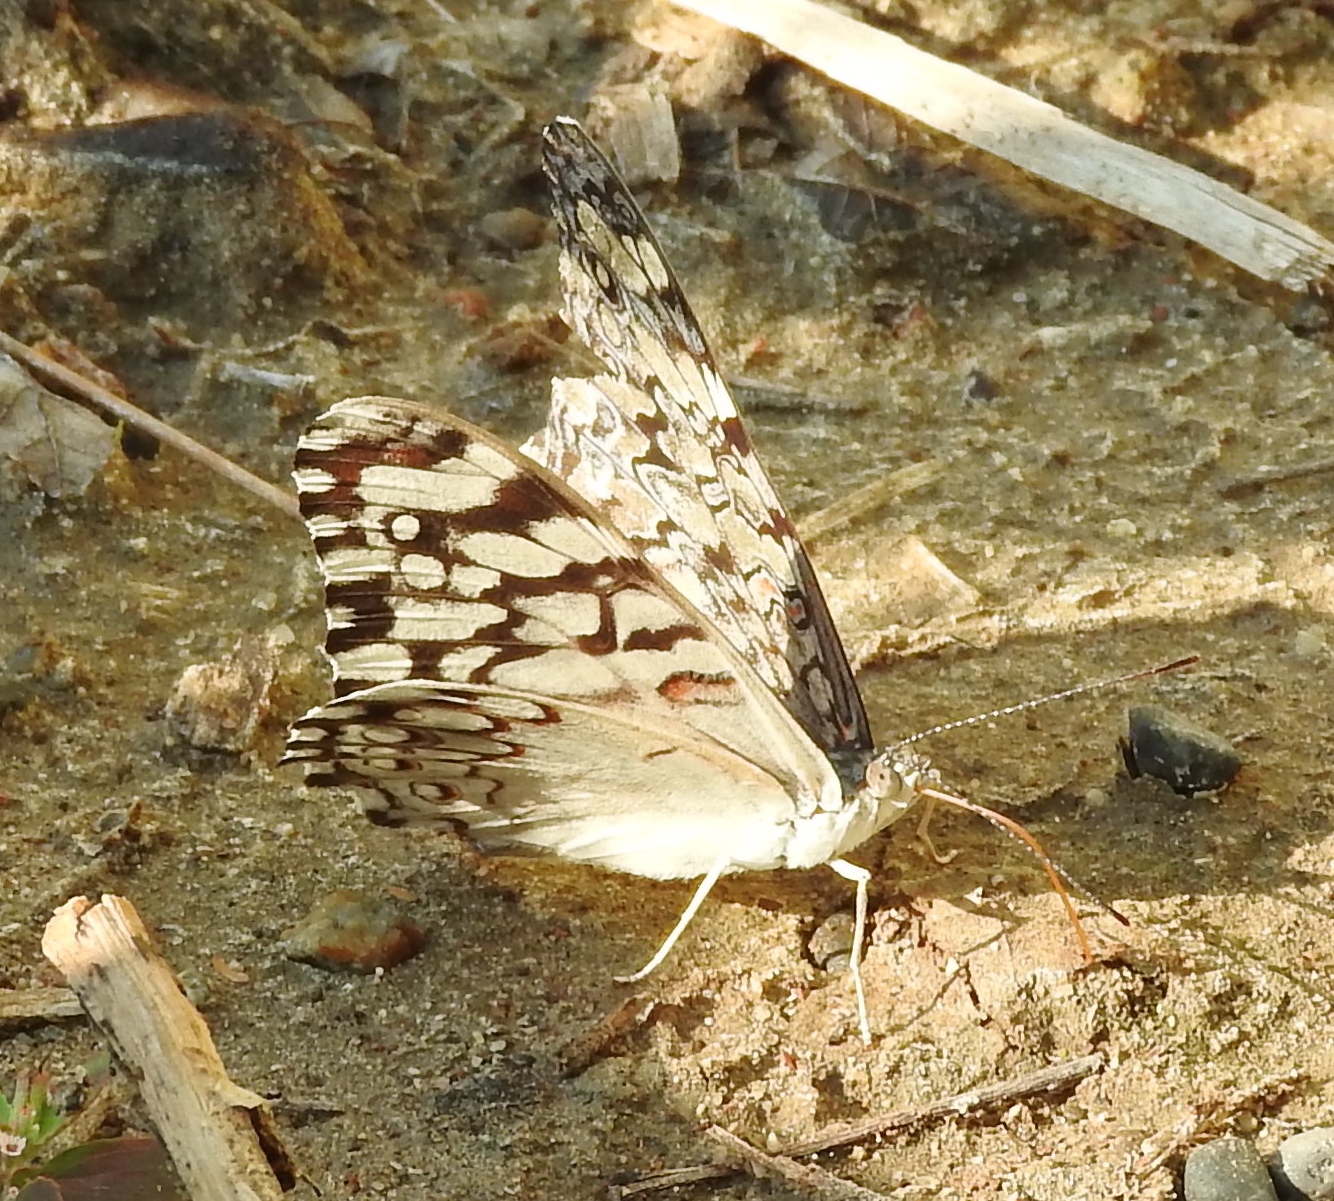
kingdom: Animalia
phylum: Arthropoda
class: Insecta
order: Lepidoptera
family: Nymphalidae
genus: Hamadryas
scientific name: Hamadryas februa
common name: Gray cracker
